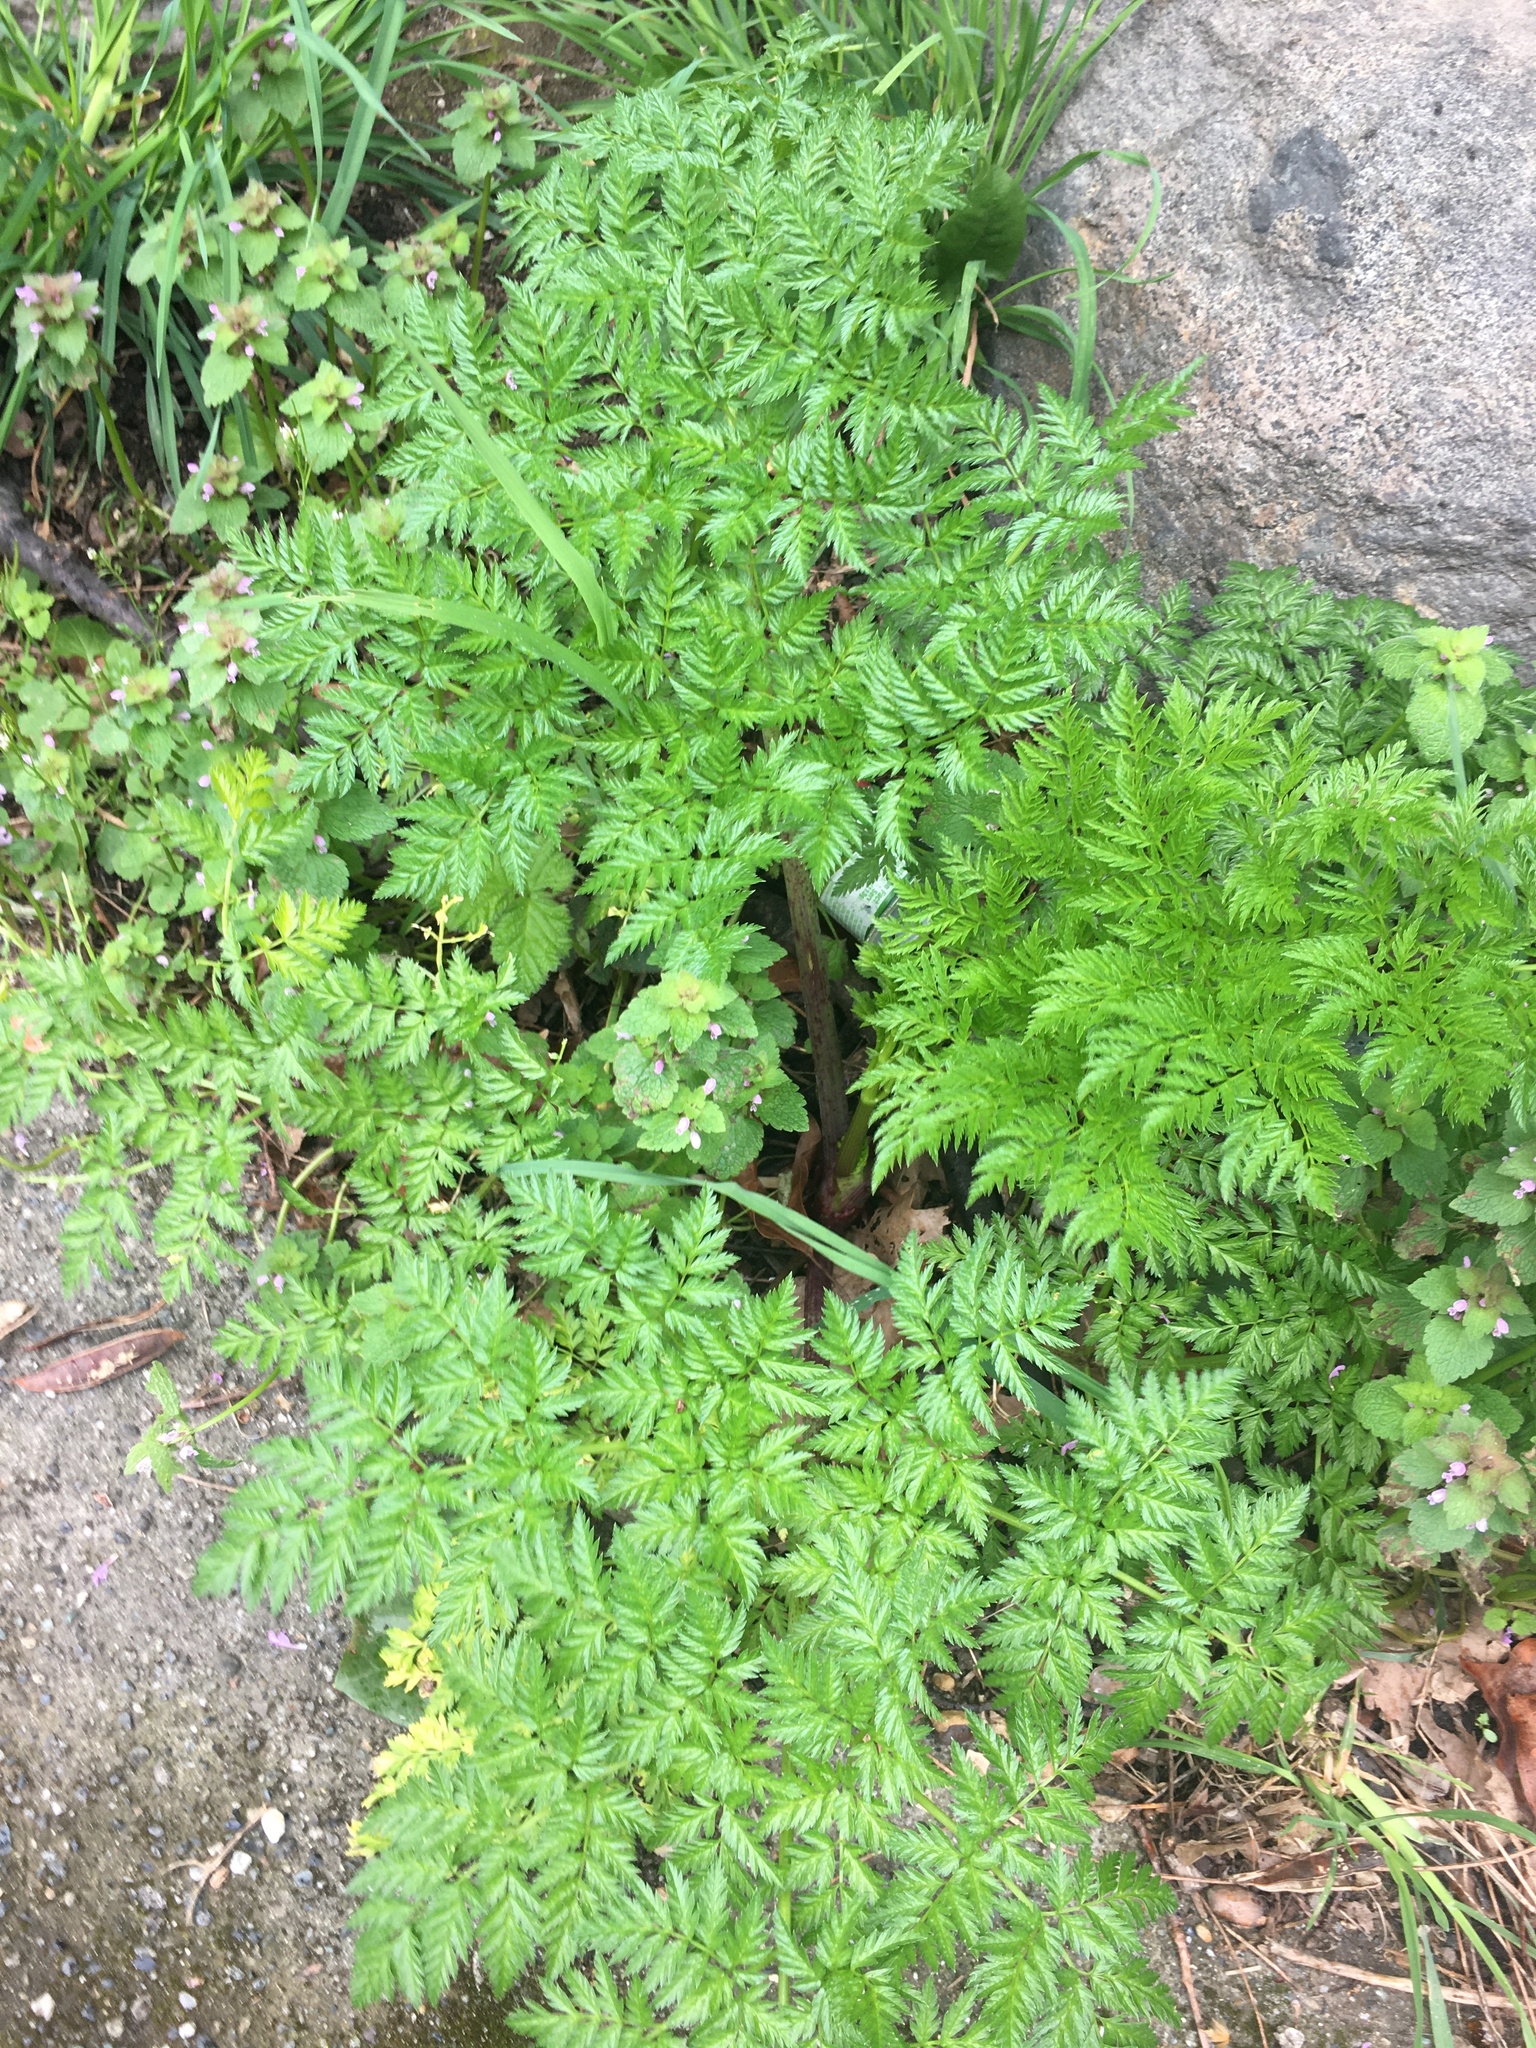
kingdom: Plantae
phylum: Tracheophyta
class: Magnoliopsida
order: Apiales
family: Apiaceae
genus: Conium
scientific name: Conium maculatum
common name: Hemlock
